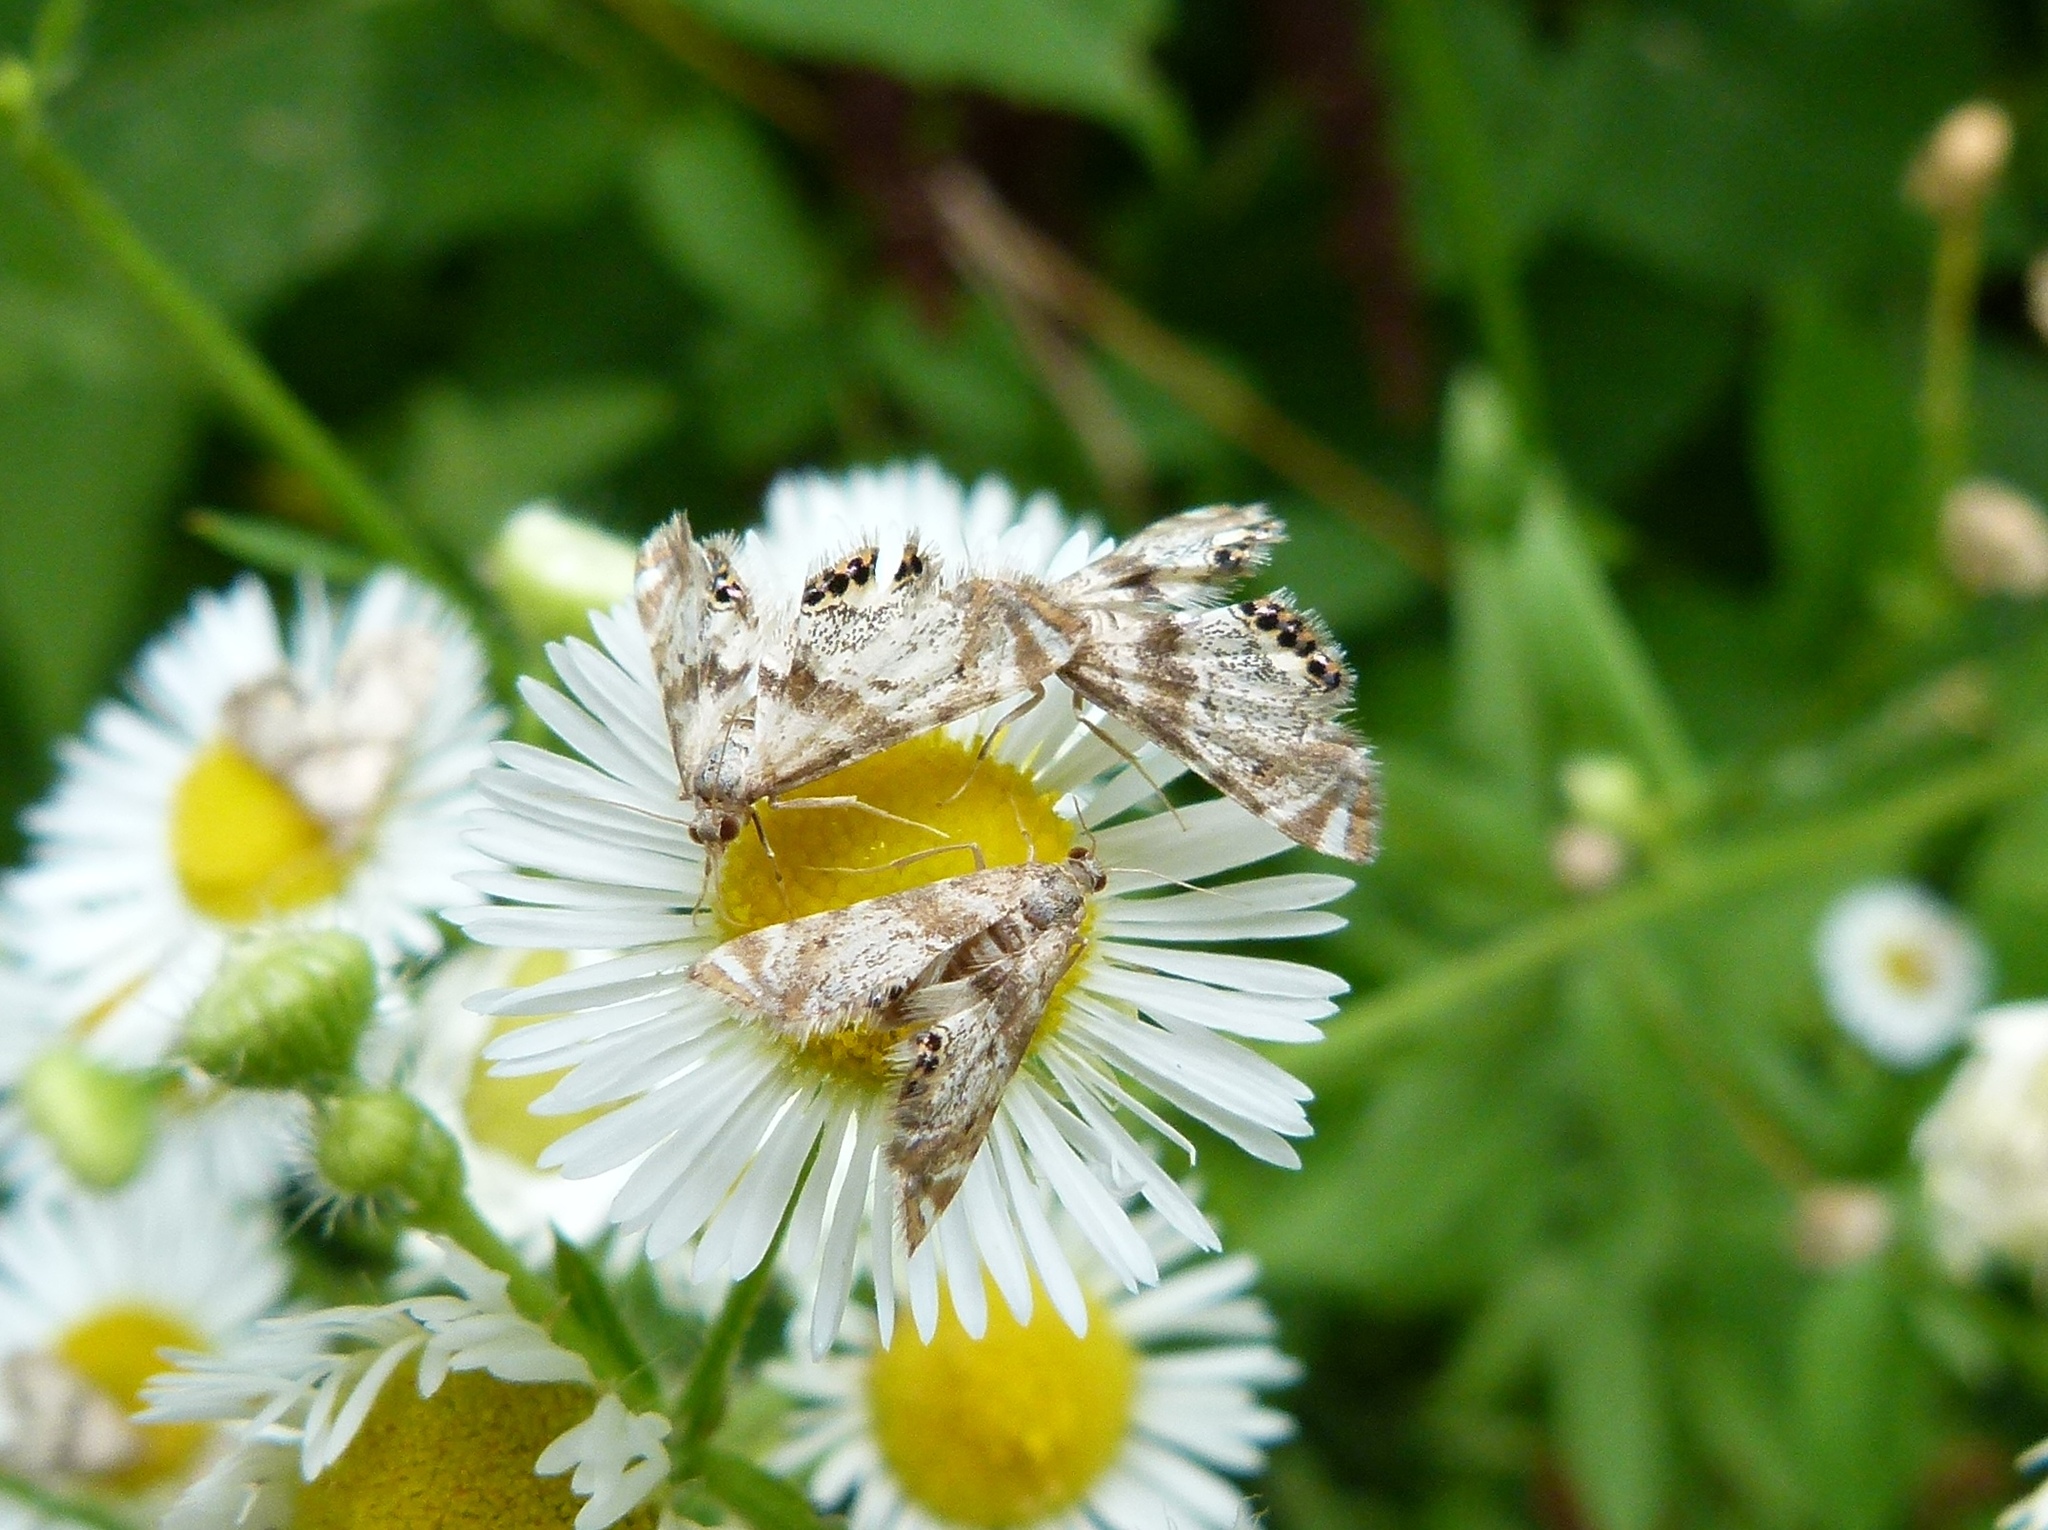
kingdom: Animalia
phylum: Arthropoda
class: Insecta
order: Lepidoptera
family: Crambidae
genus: Petrophila
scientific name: Petrophila fulicalis
